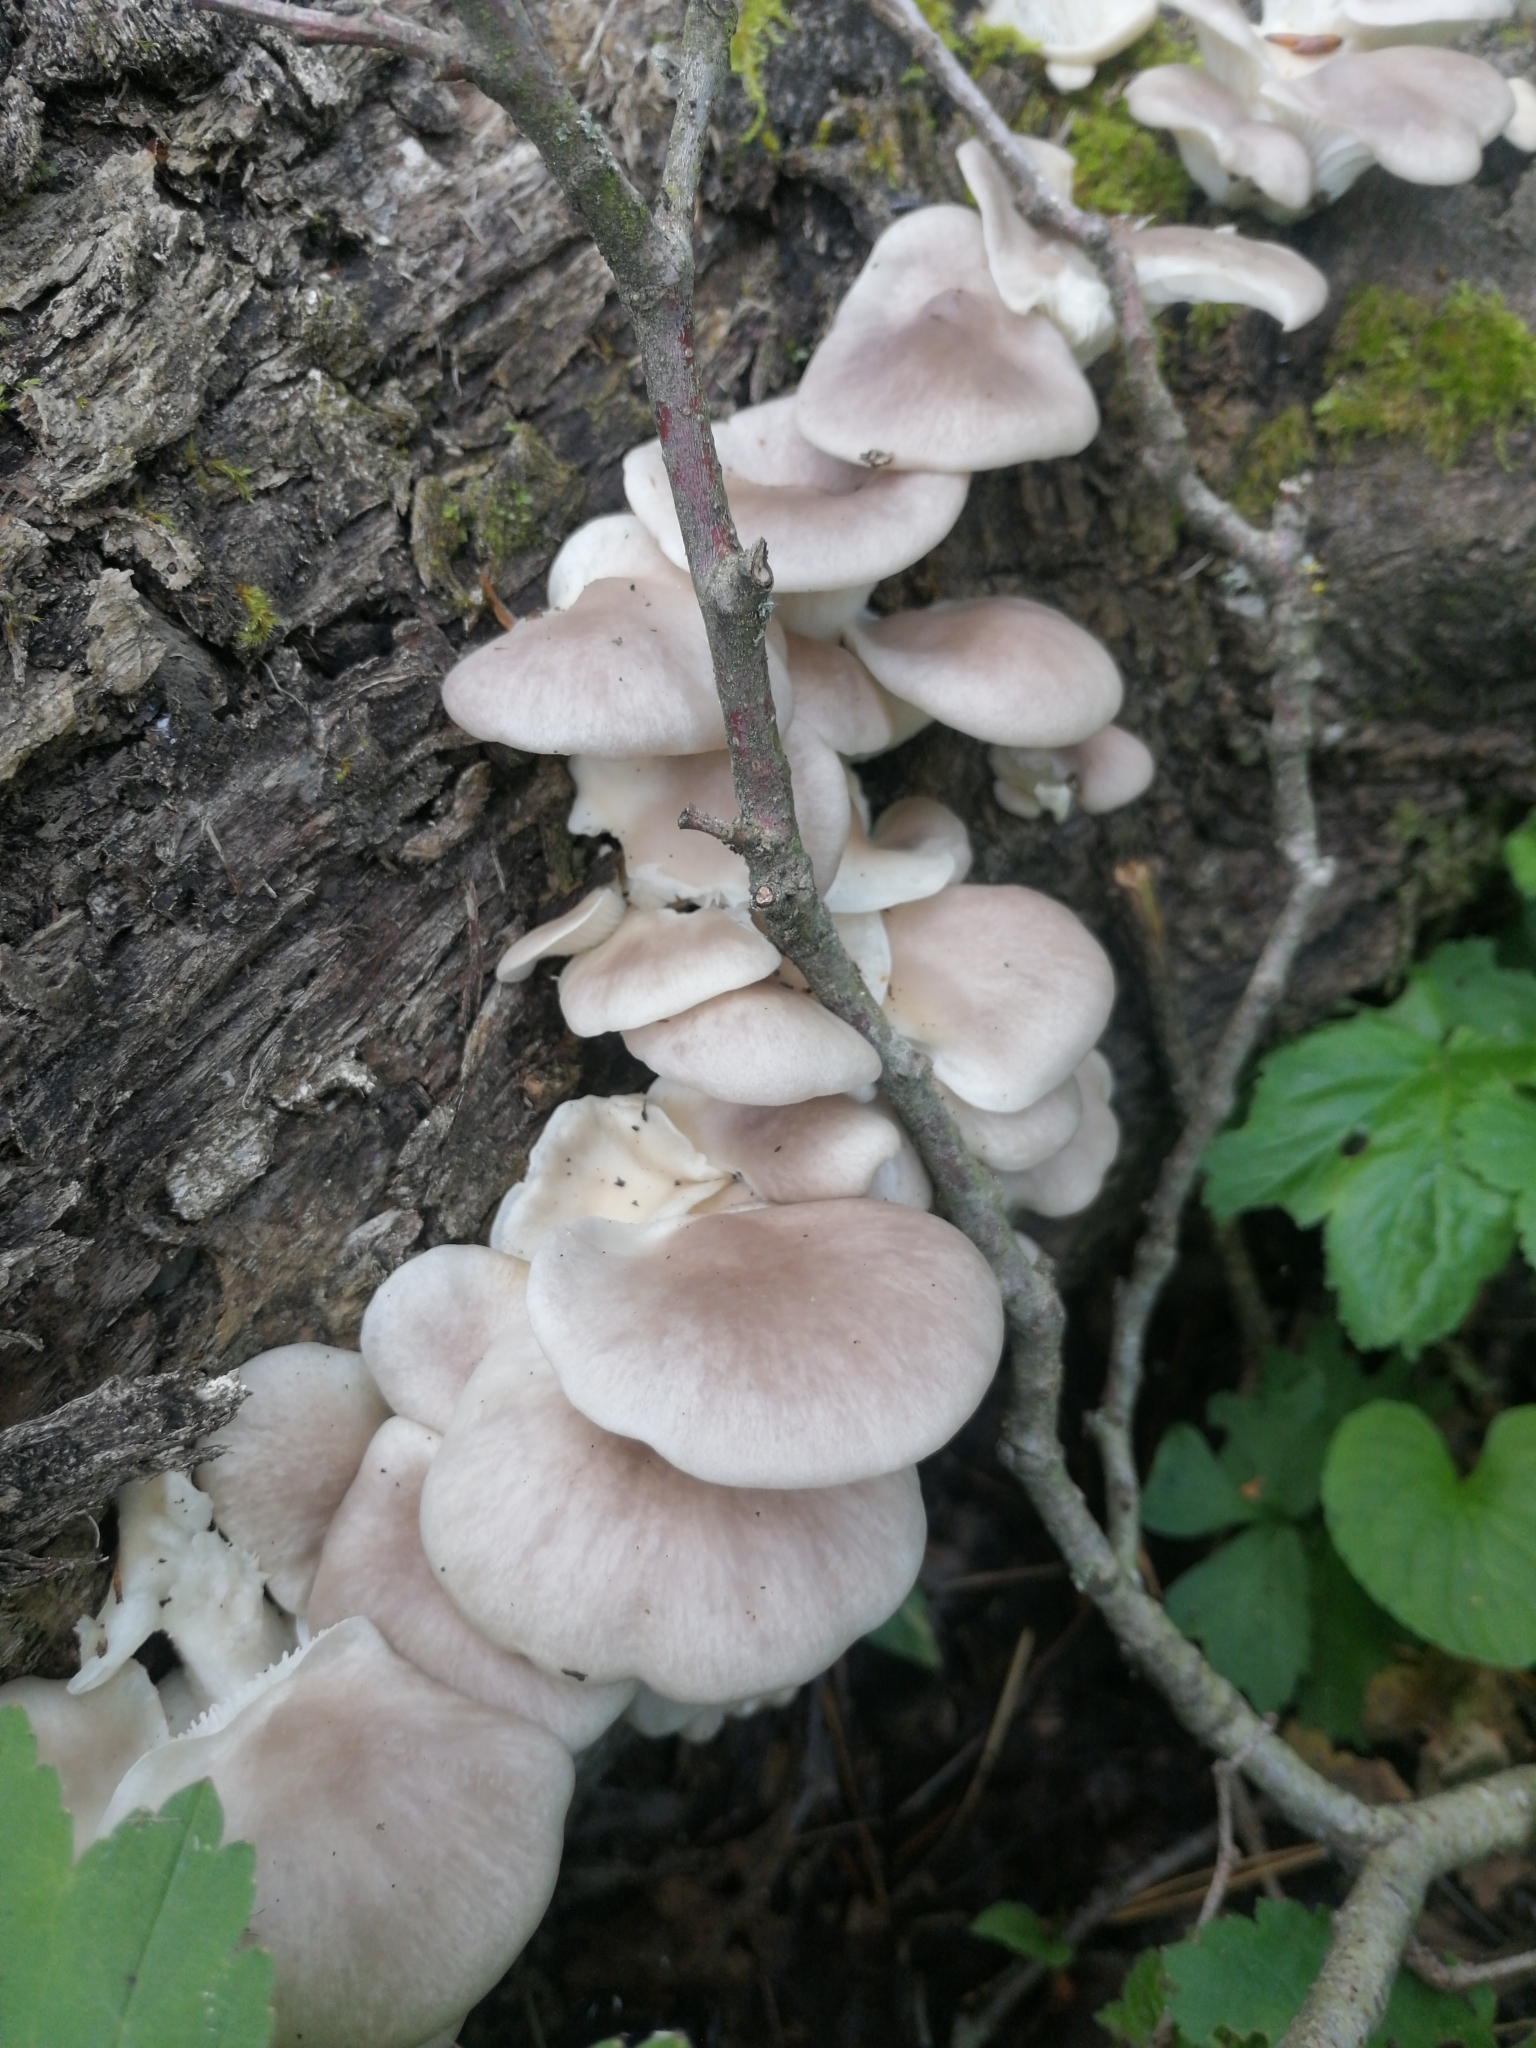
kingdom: Fungi
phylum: Basidiomycota
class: Agaricomycetes
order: Agaricales
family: Pleurotaceae
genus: Pleurotus
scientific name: Pleurotus pulmonarius
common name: Pale oyster
